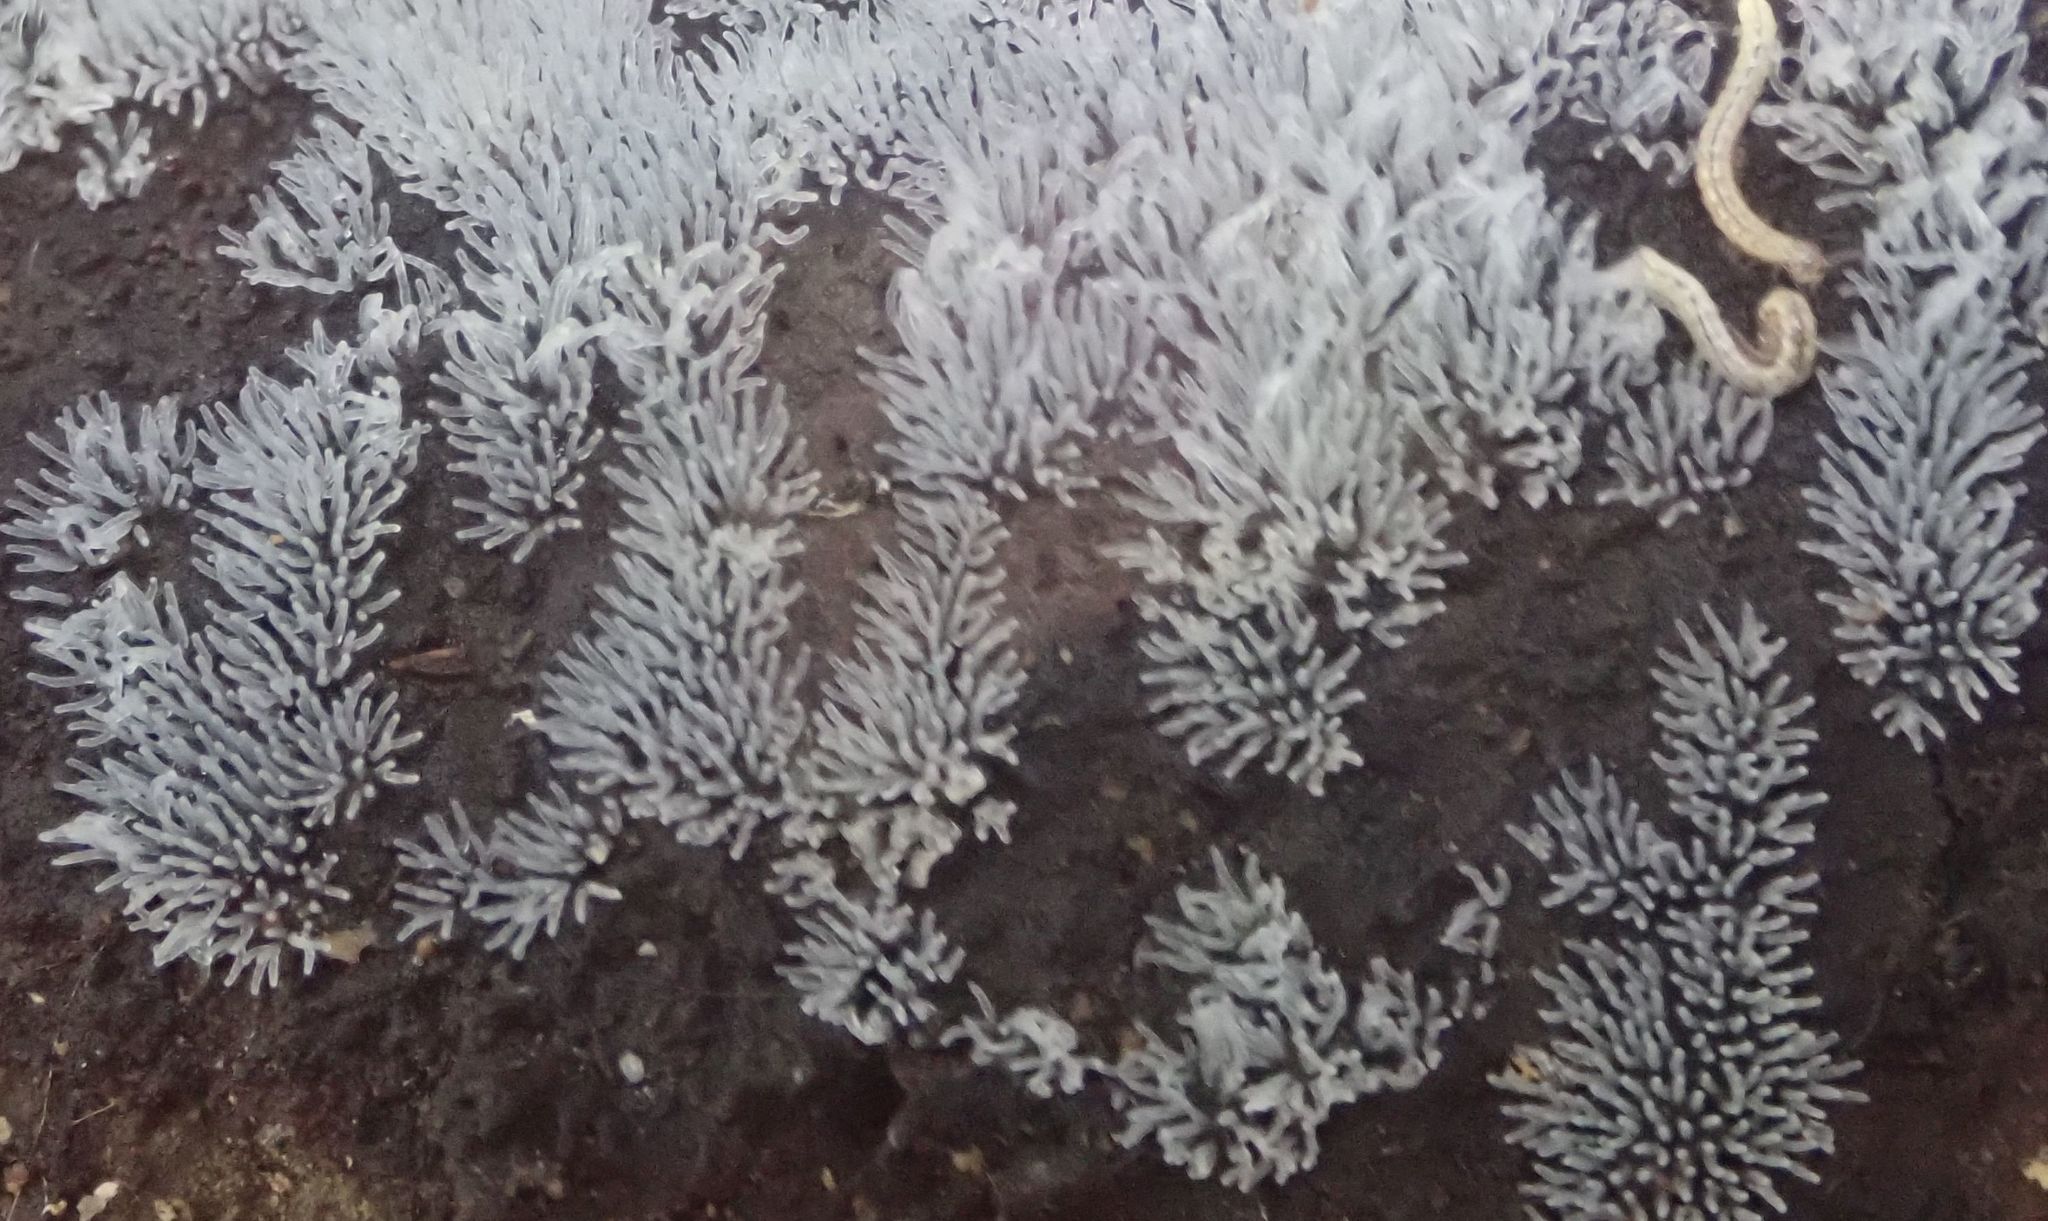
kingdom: Protozoa
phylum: Mycetozoa
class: Protosteliomycetes
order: Ceratiomyxales
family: Ceratiomyxaceae
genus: Ceratiomyxa
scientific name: Ceratiomyxa fruticulosa
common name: Honeycomb coral slime mold
